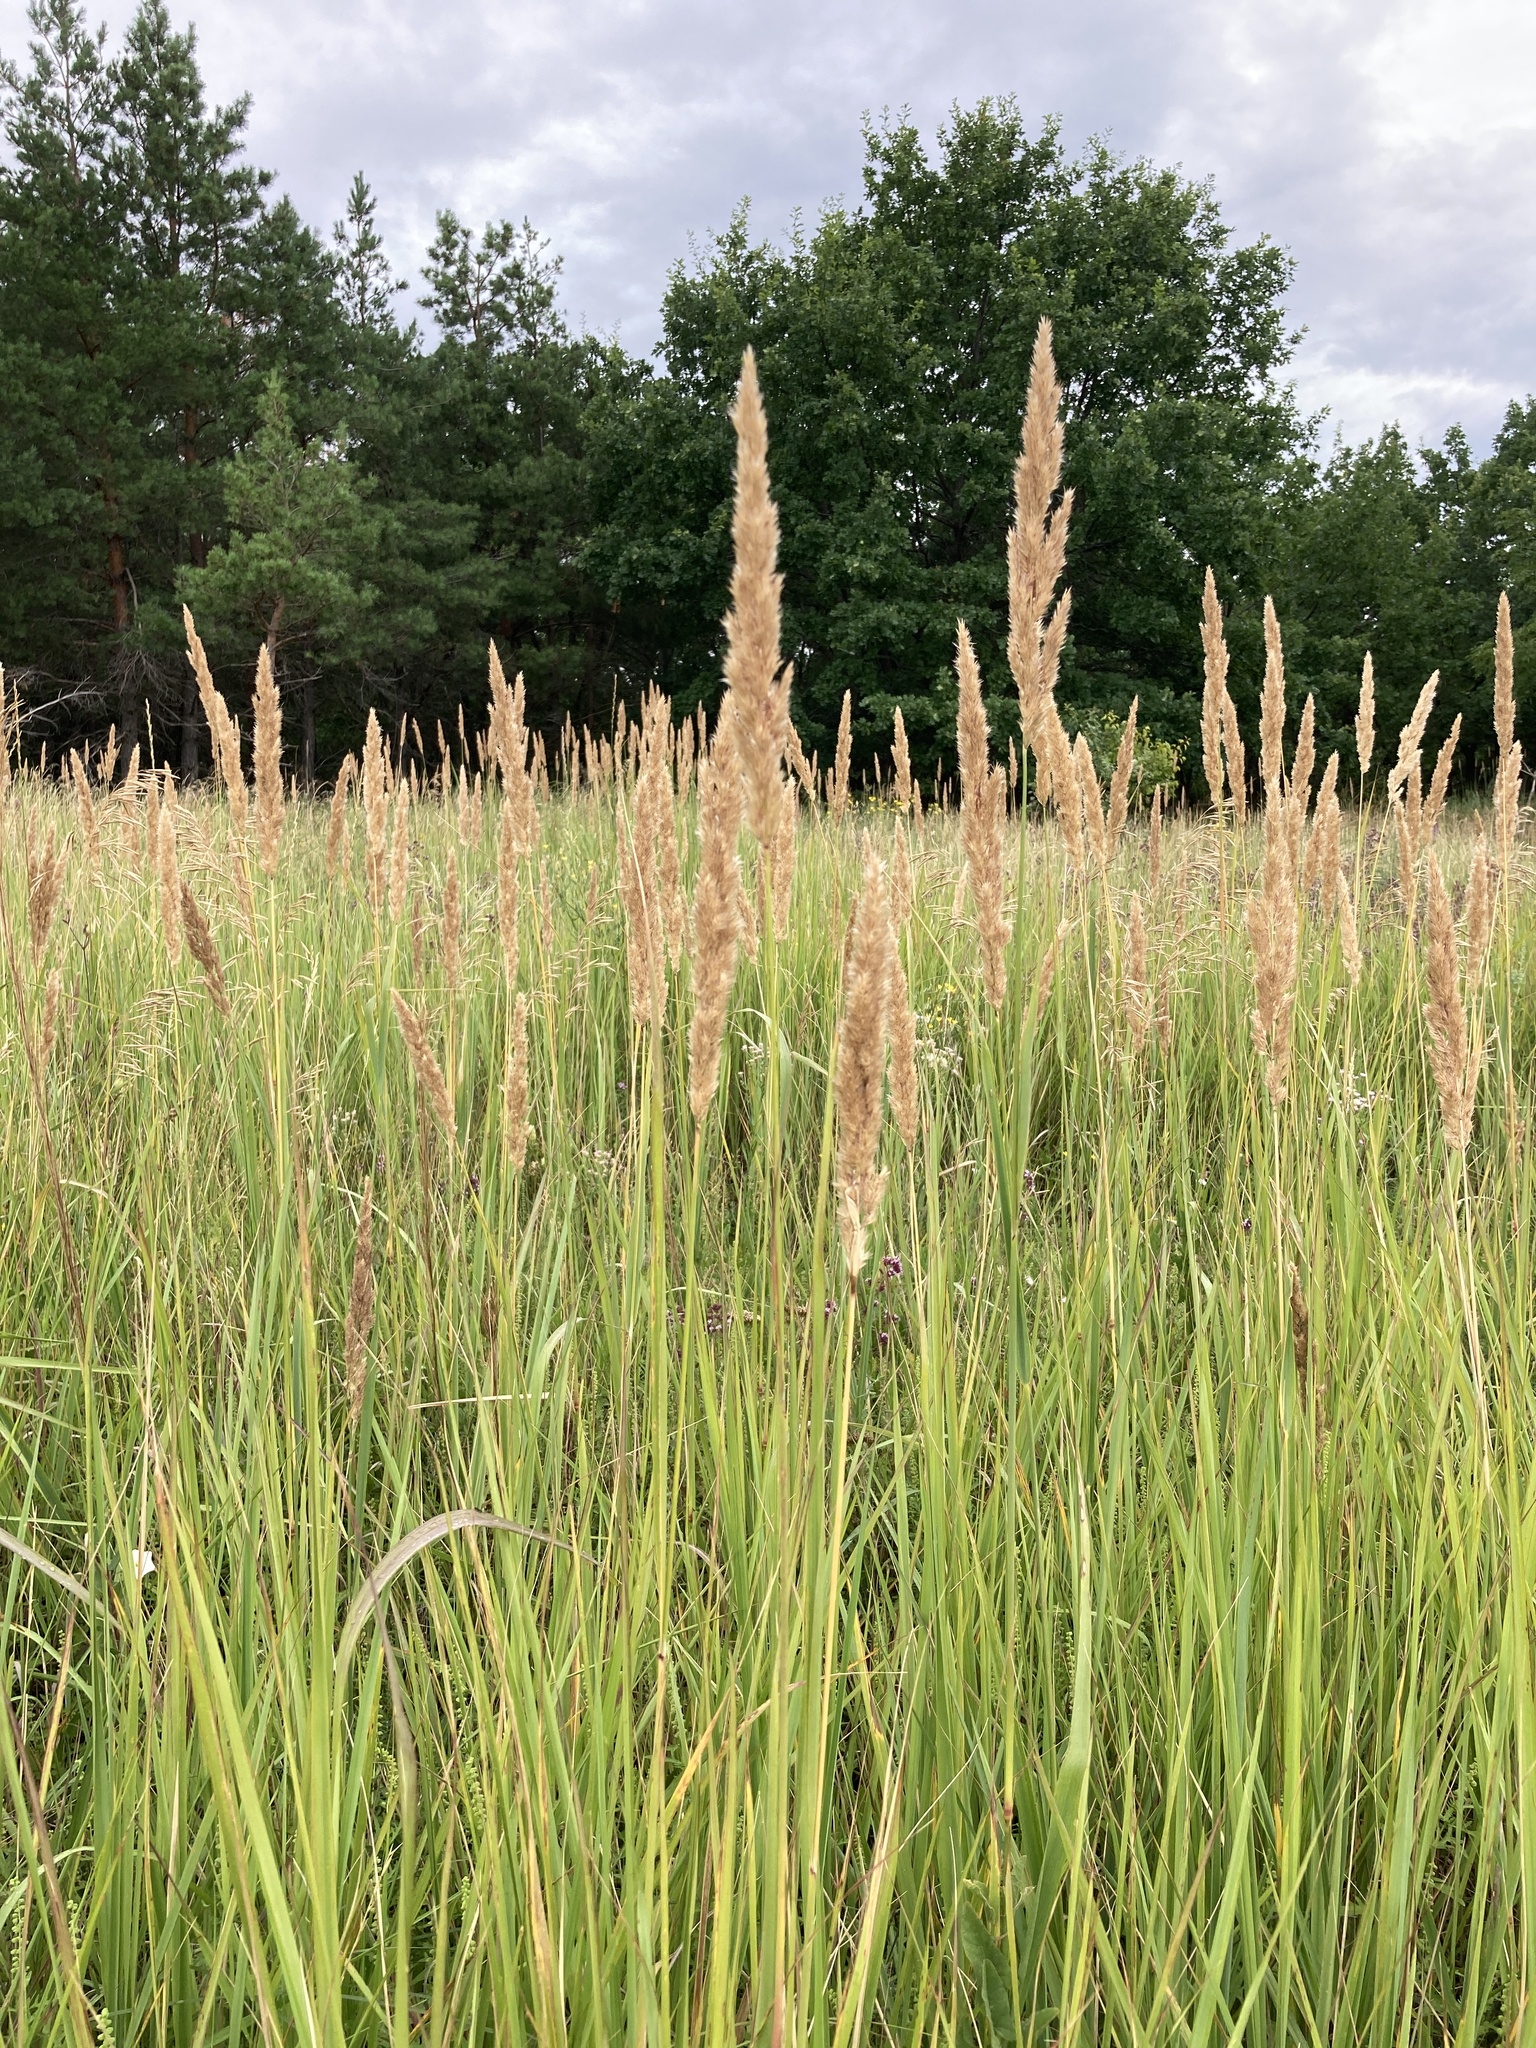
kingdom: Plantae
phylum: Tracheophyta
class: Liliopsida
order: Poales
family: Poaceae
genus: Calamagrostis
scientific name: Calamagrostis epigejos
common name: Wood small-reed
